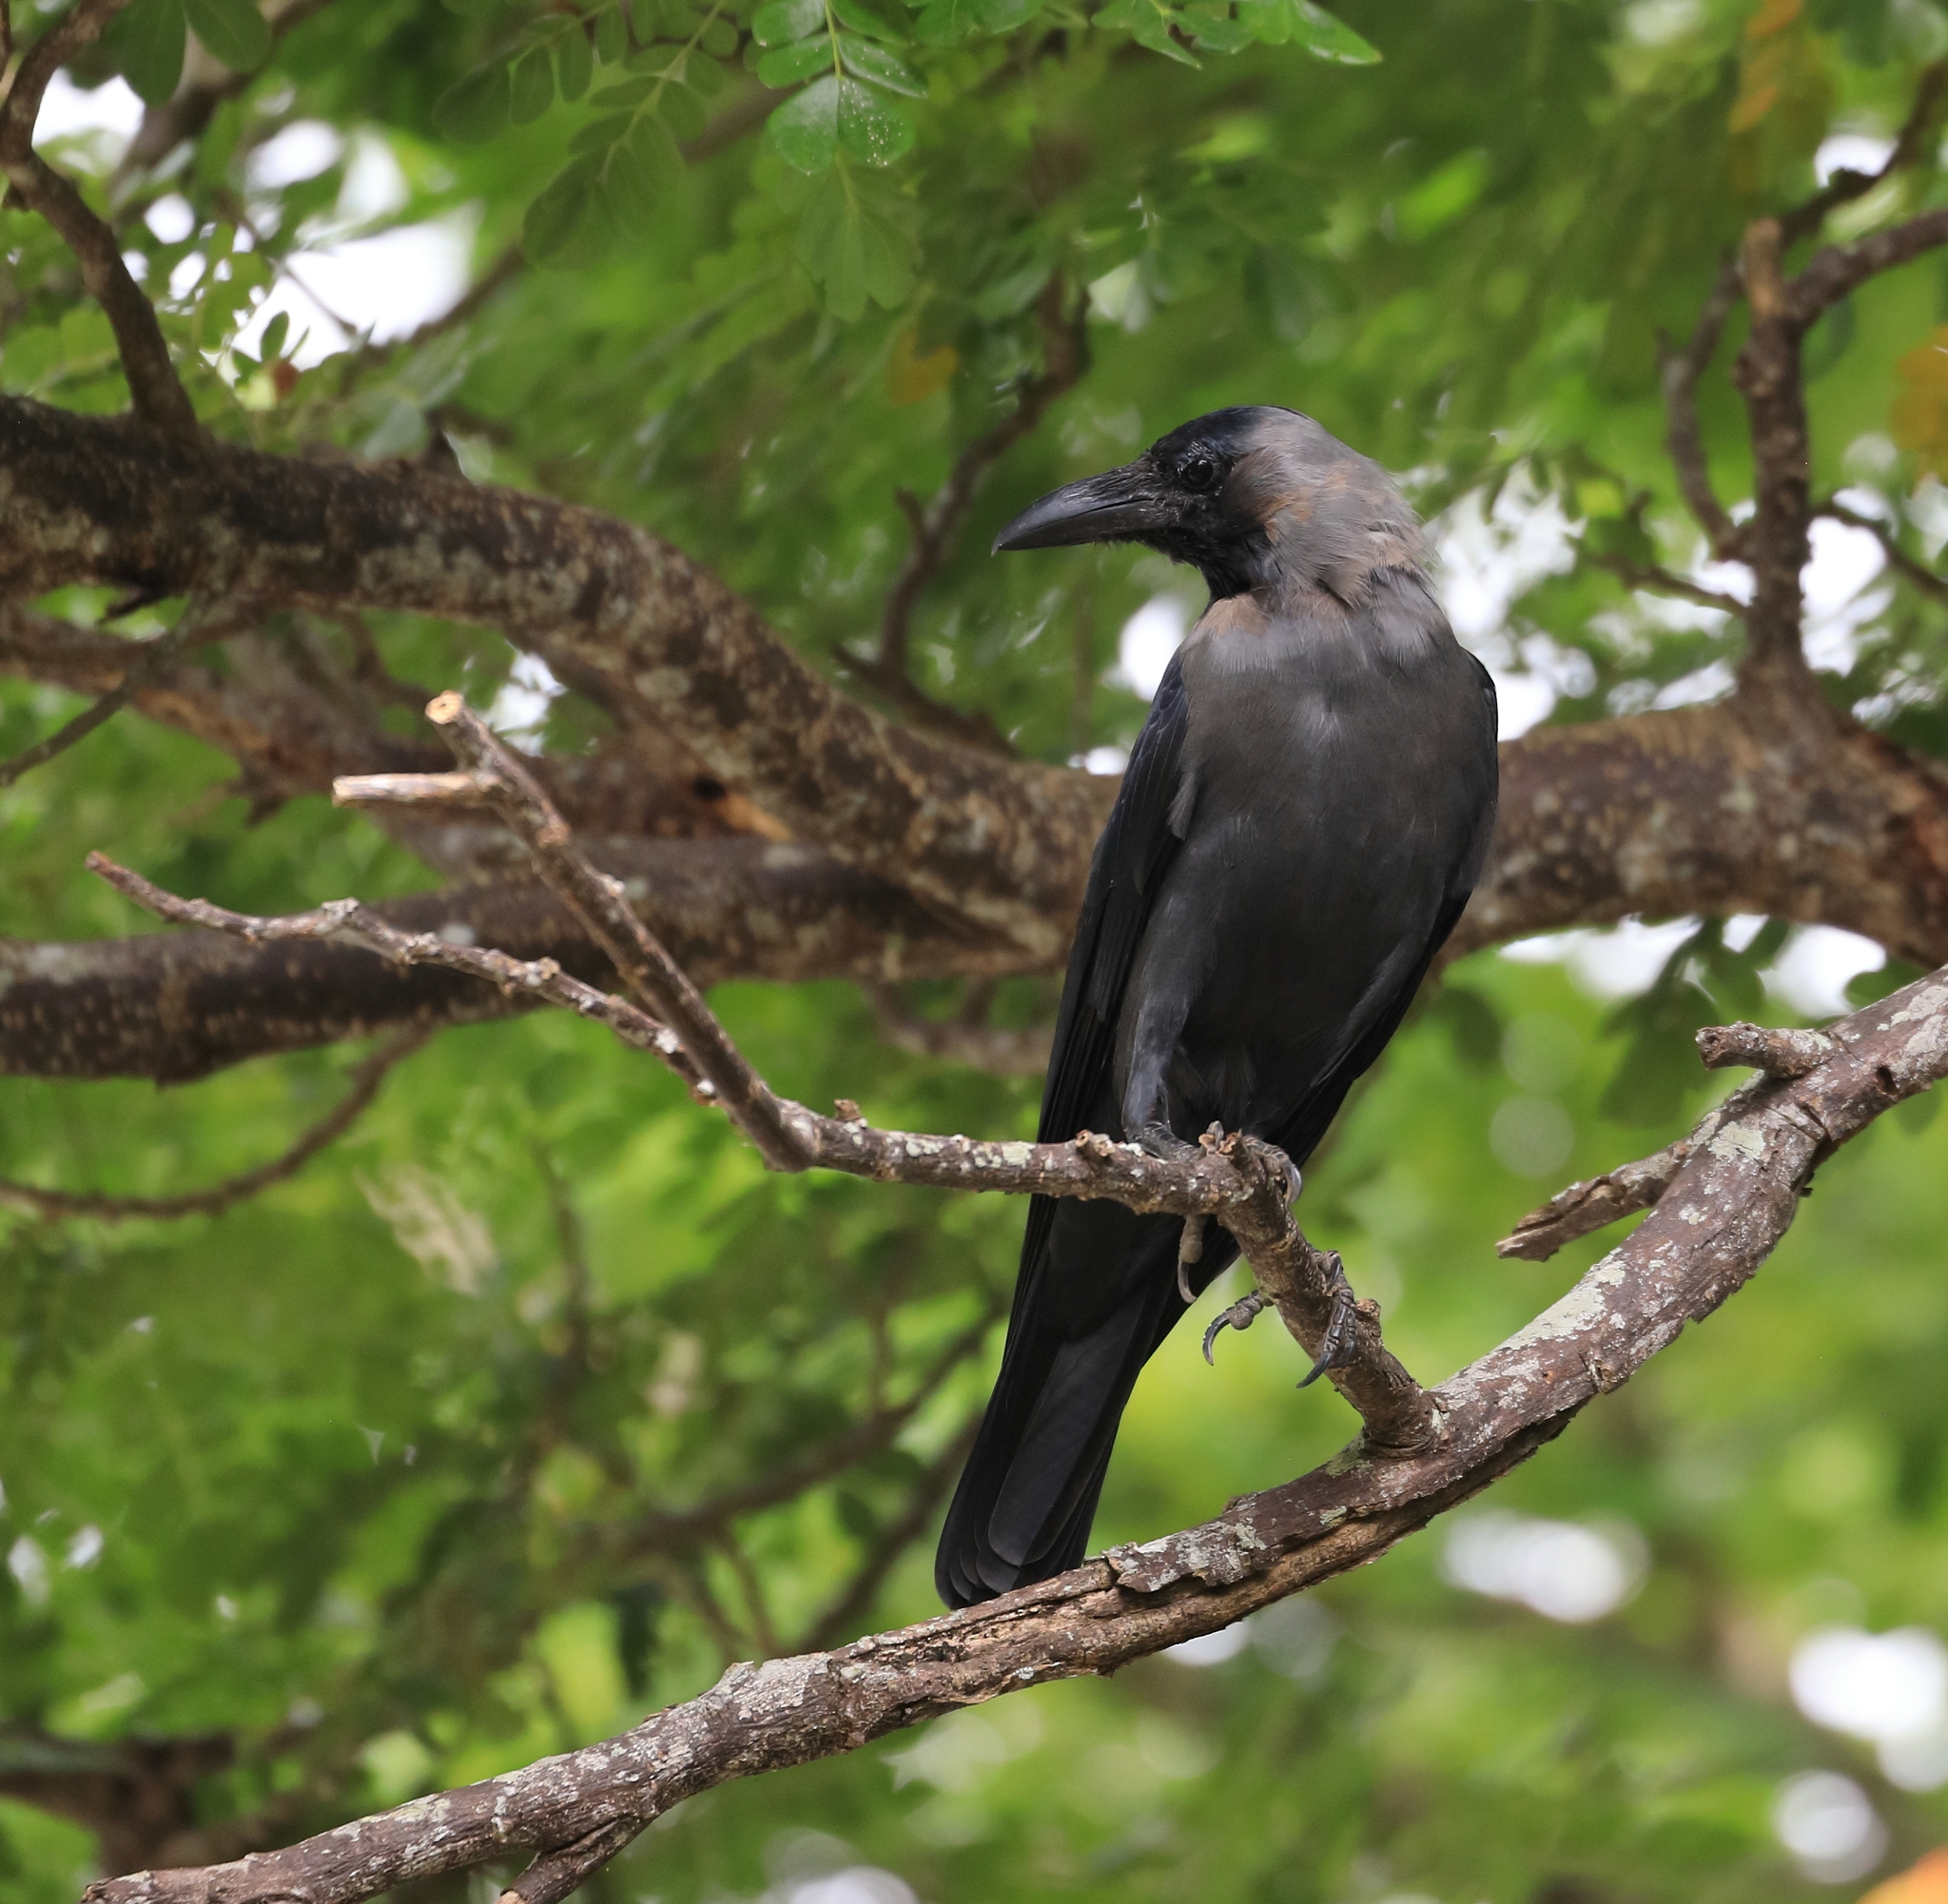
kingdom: Animalia
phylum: Chordata
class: Aves
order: Passeriformes
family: Corvidae
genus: Corvus
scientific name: Corvus splendens
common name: House crow
